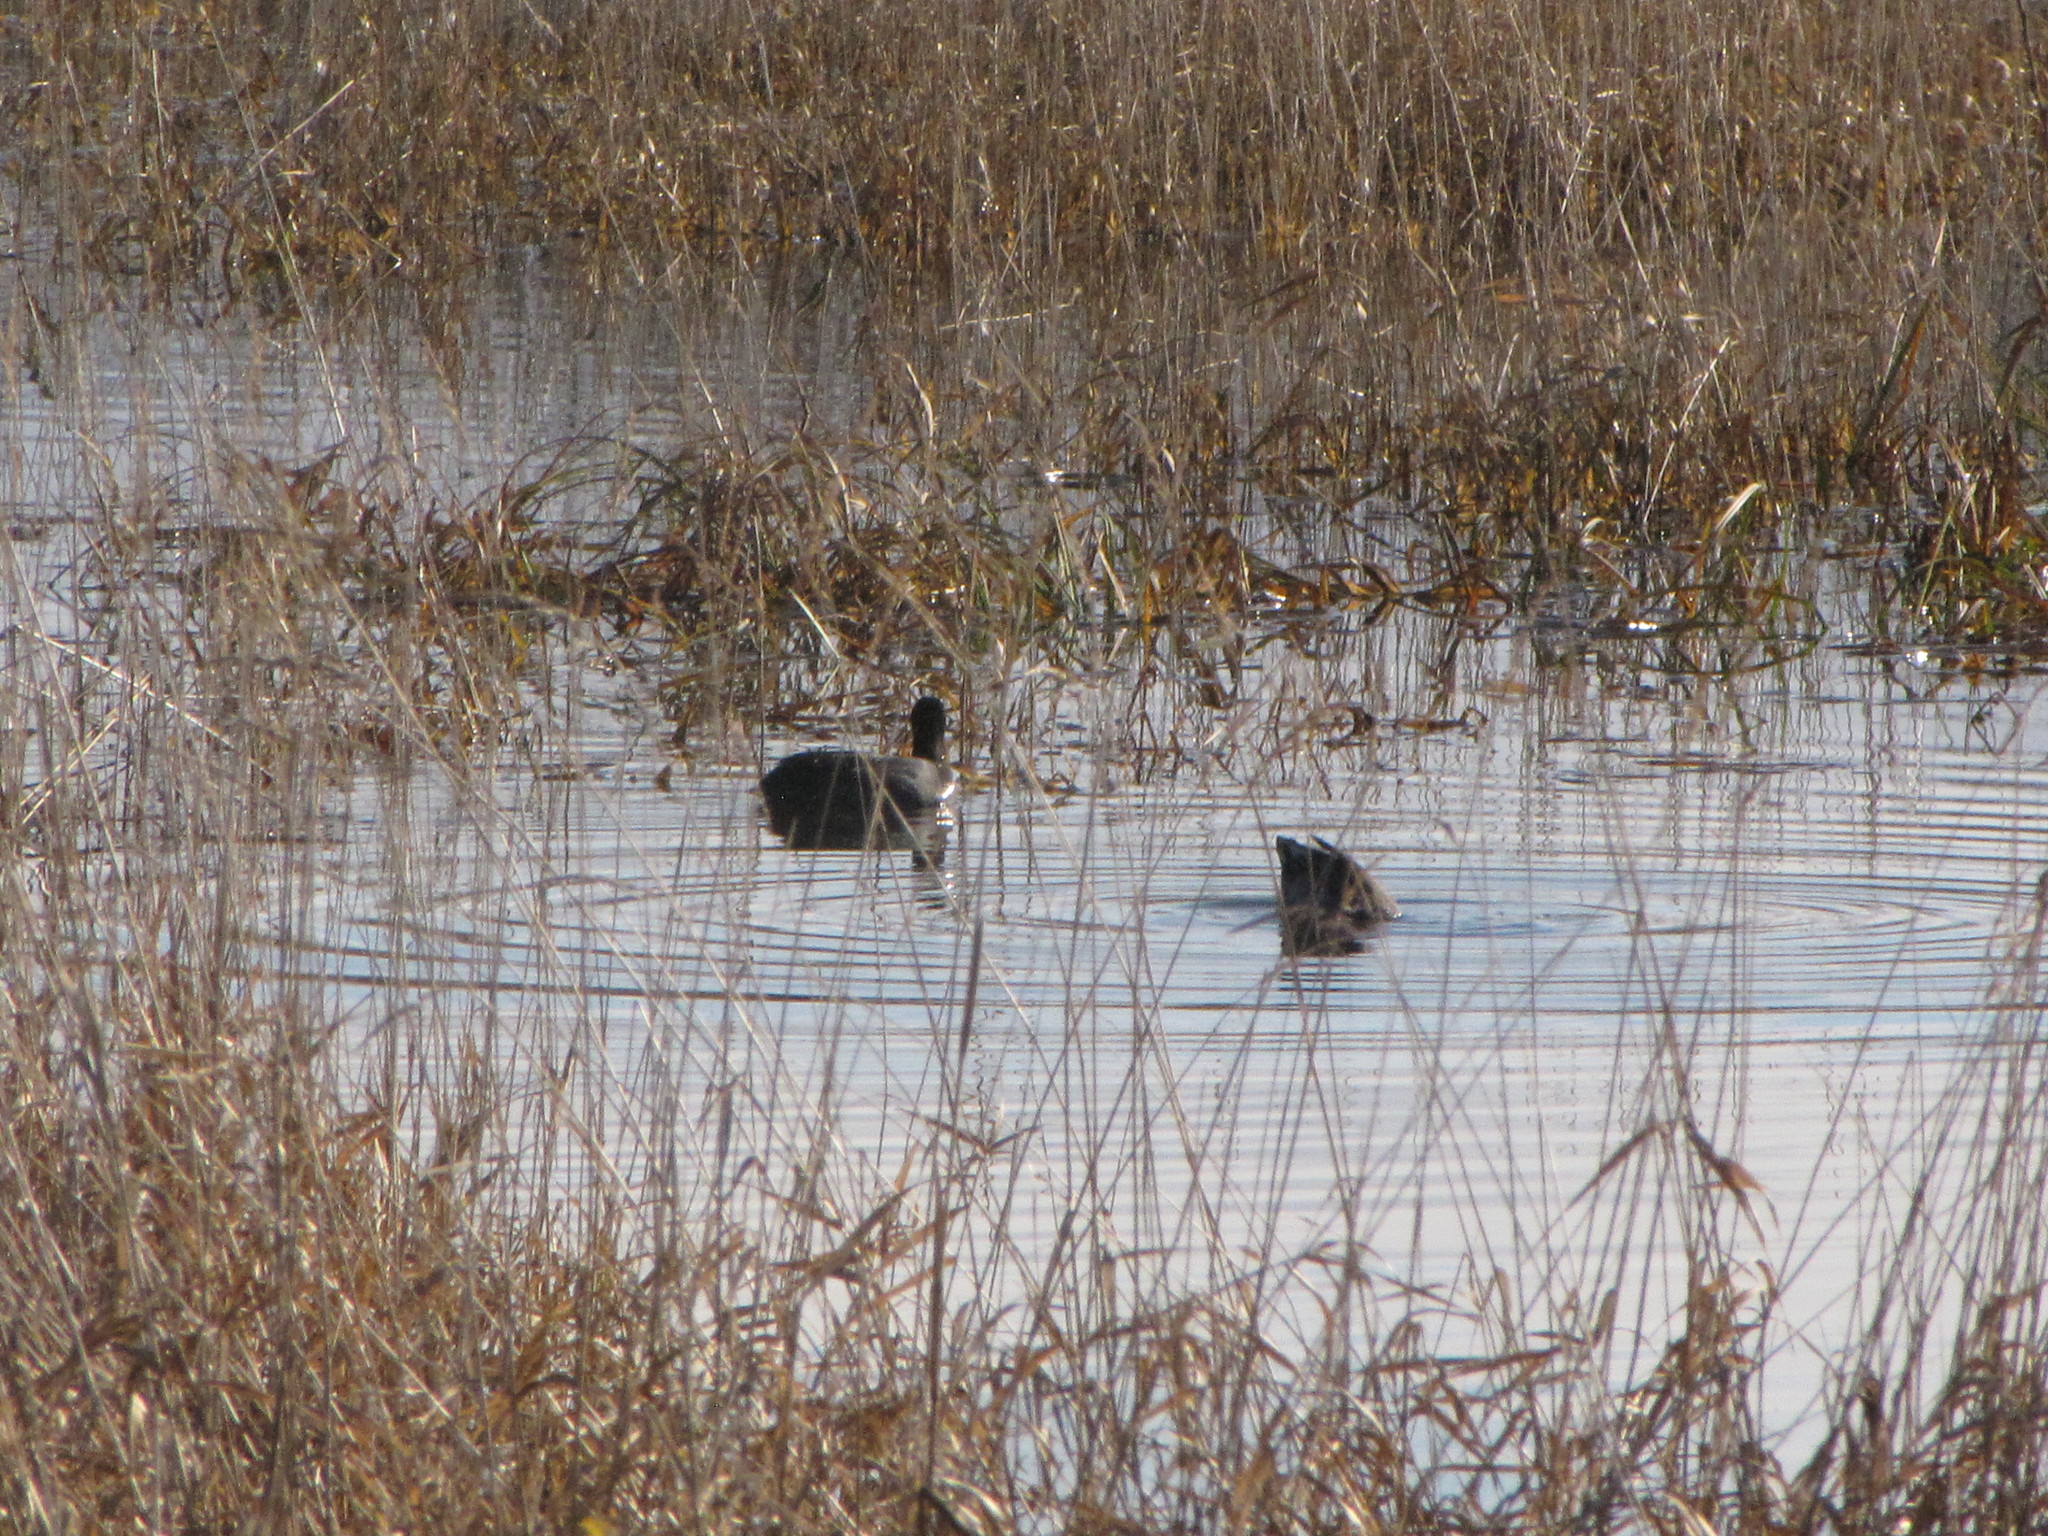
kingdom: Animalia
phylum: Chordata
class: Aves
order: Gruiformes
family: Rallidae
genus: Fulica
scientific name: Fulica americana
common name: American coot
